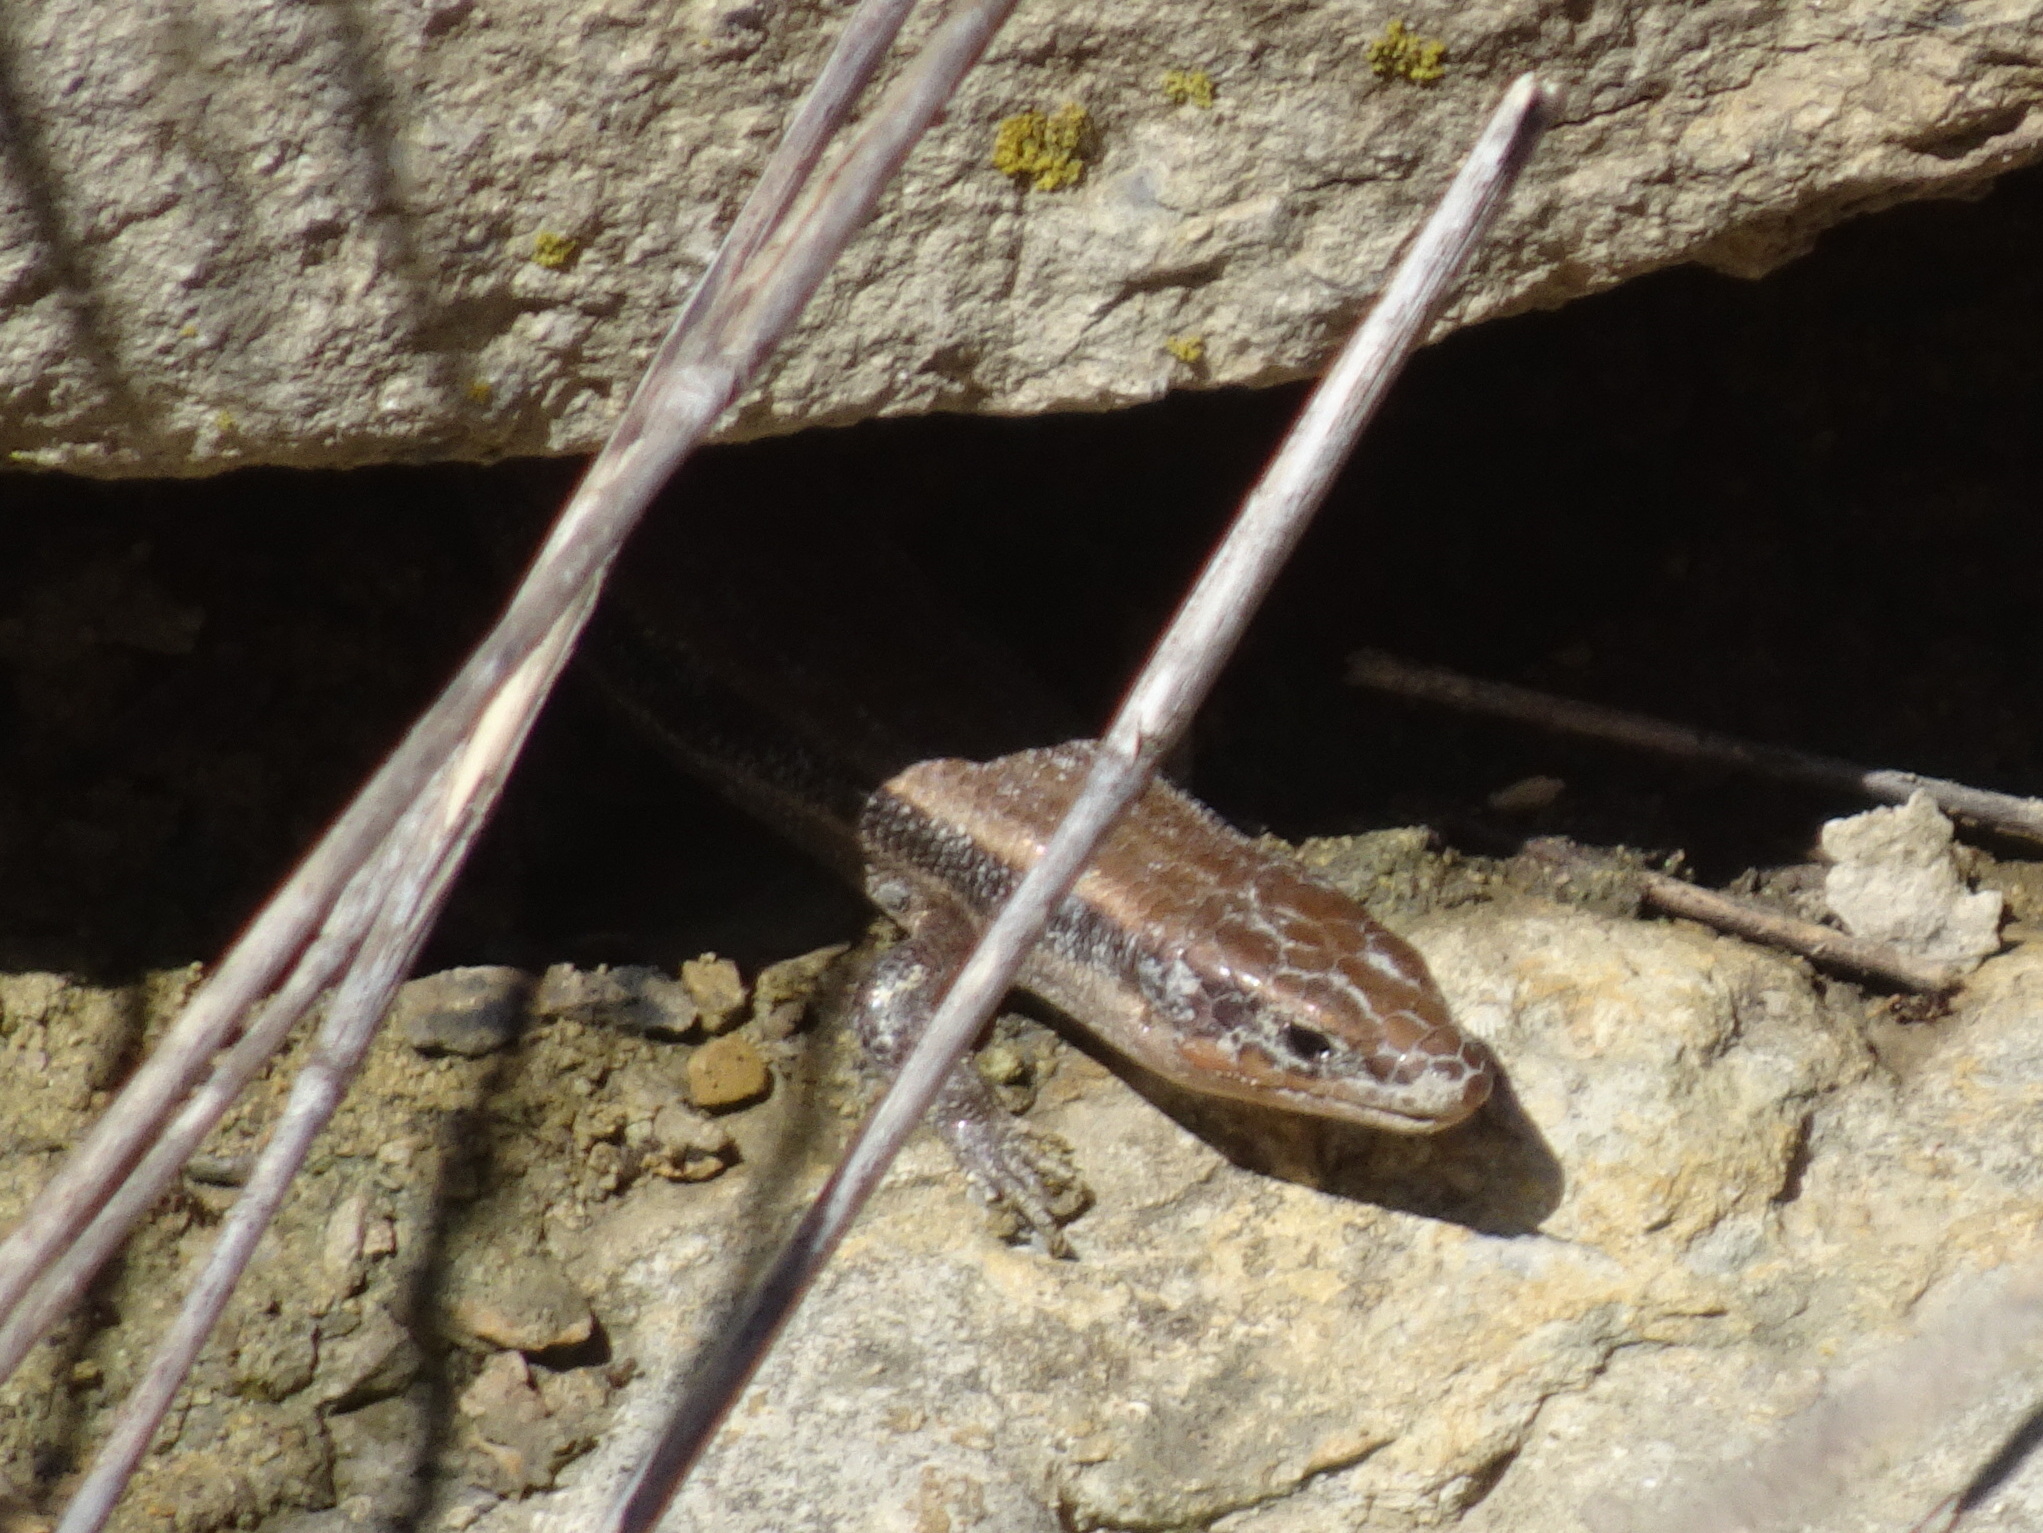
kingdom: Animalia
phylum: Chordata
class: Squamata
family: Scincidae
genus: Plestiodon
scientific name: Plestiodon fasciatus
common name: Five-lined skink
